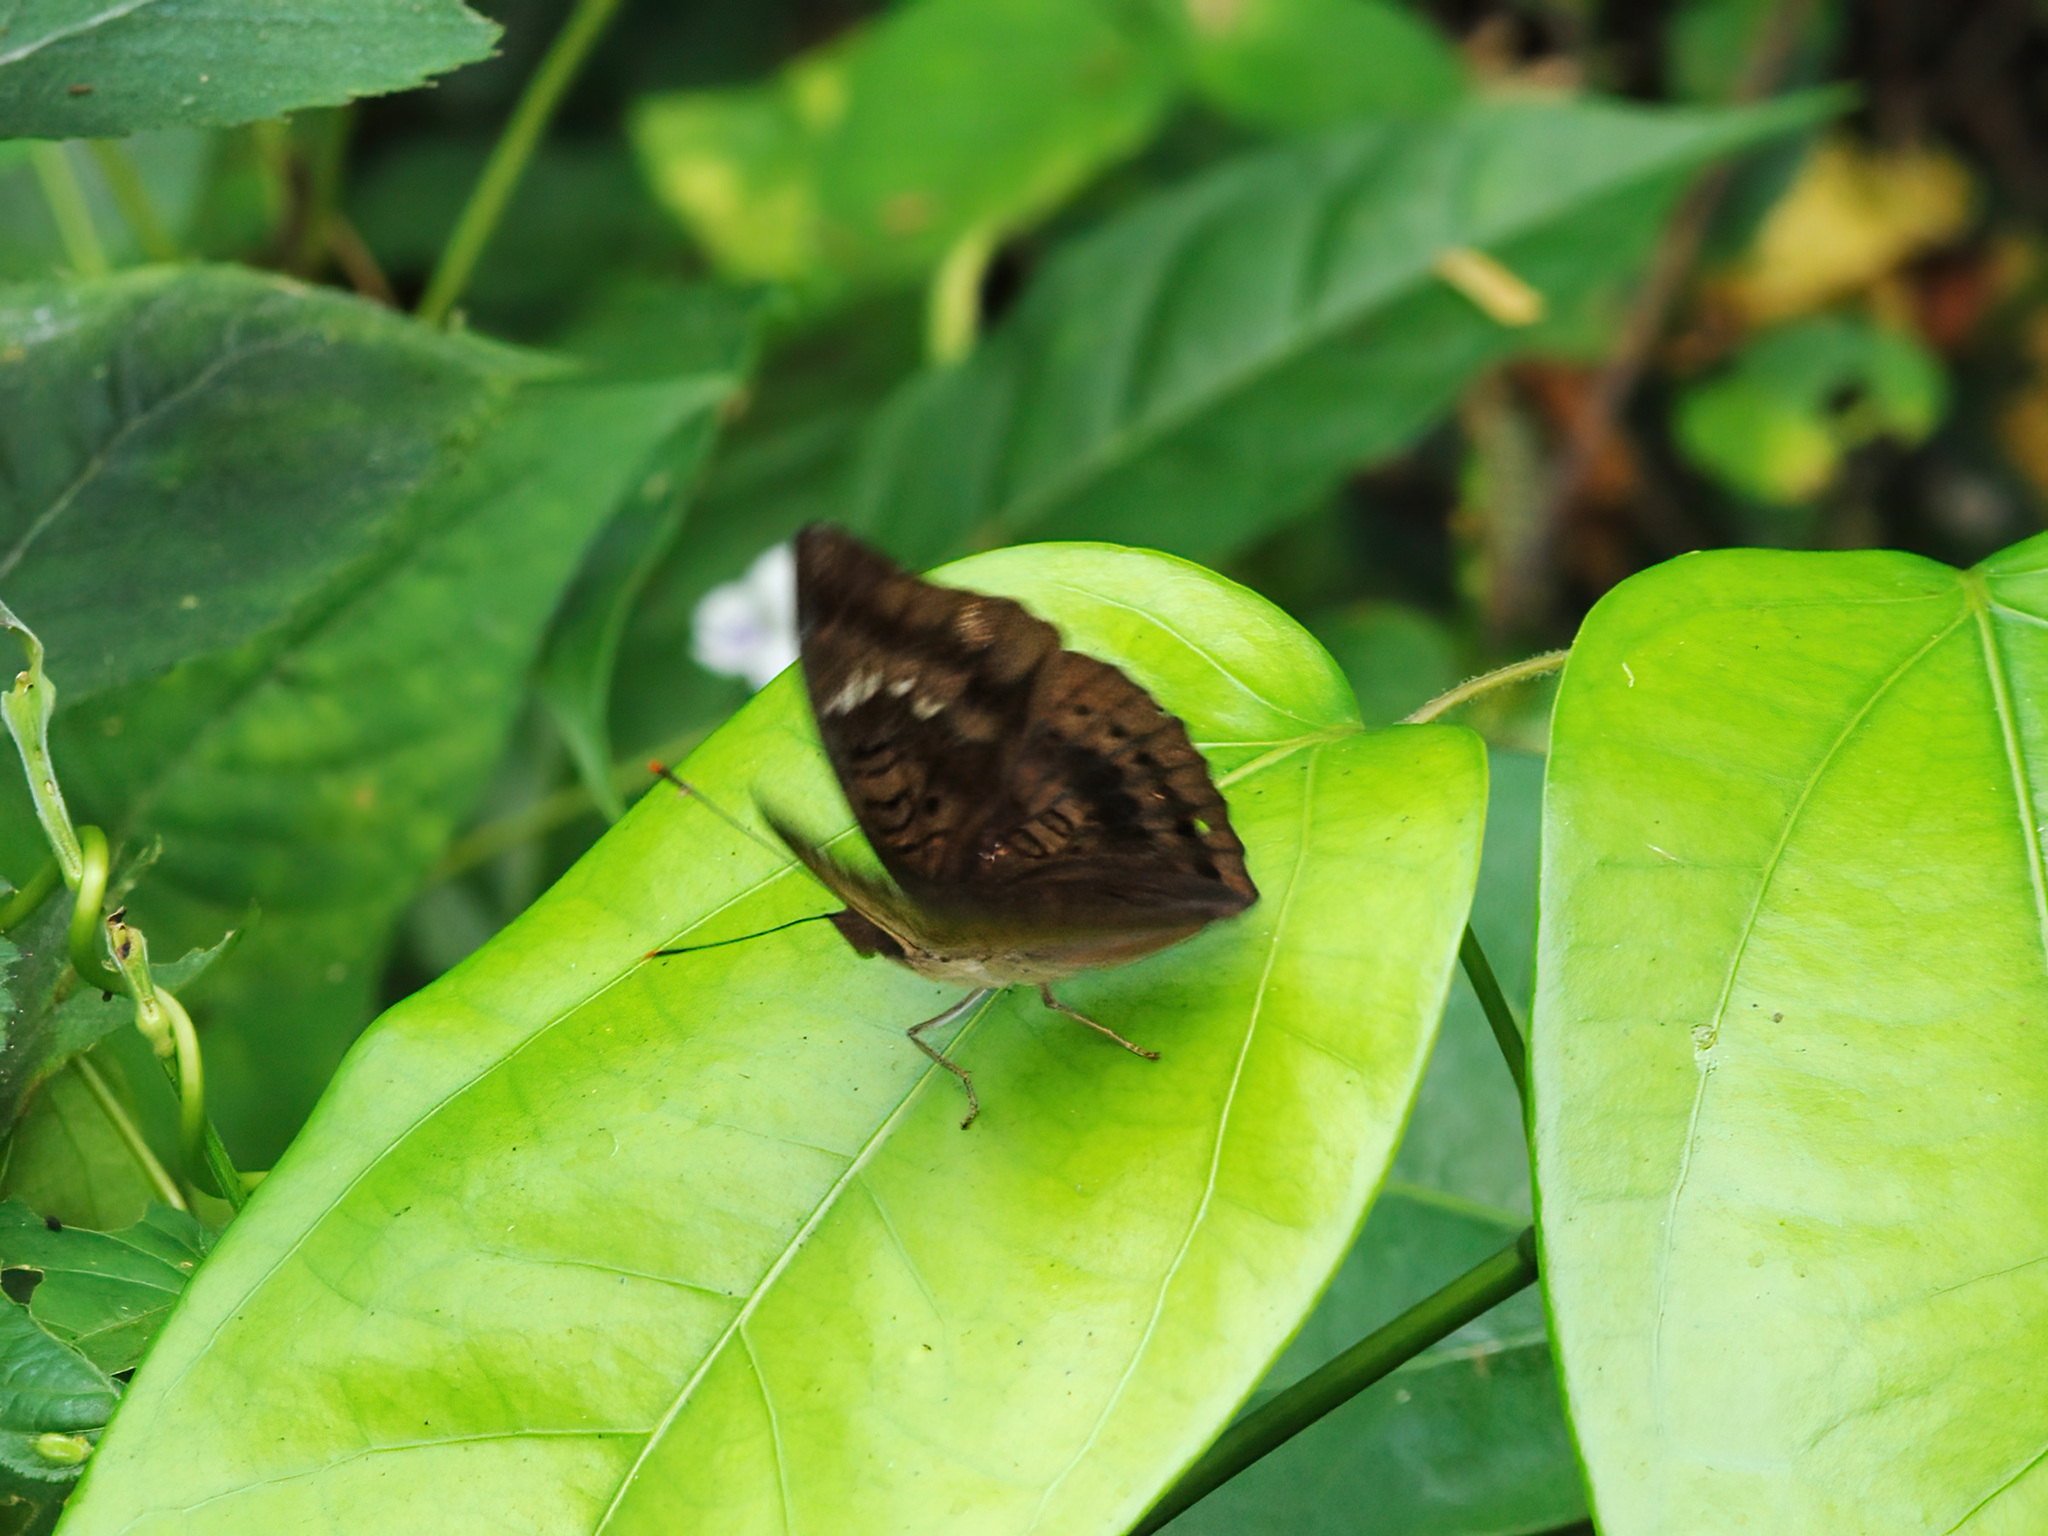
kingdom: Animalia
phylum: Arthropoda
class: Insecta
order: Lepidoptera
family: Nymphalidae
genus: Euthalia
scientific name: Euthalia aconthea
